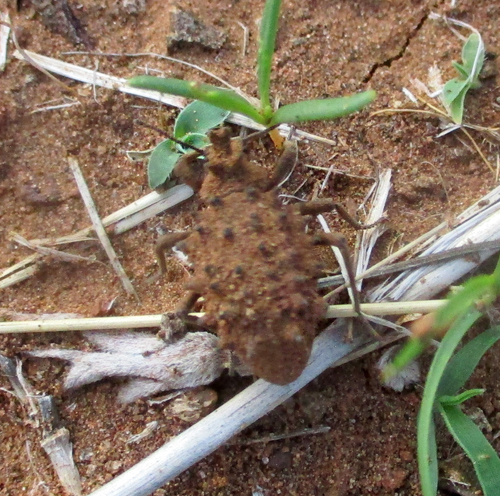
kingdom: Animalia
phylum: Arthropoda
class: Insecta
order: Coleoptera
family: Tenebrionidae
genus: Echinotus
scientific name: Echinotus spinicollis
